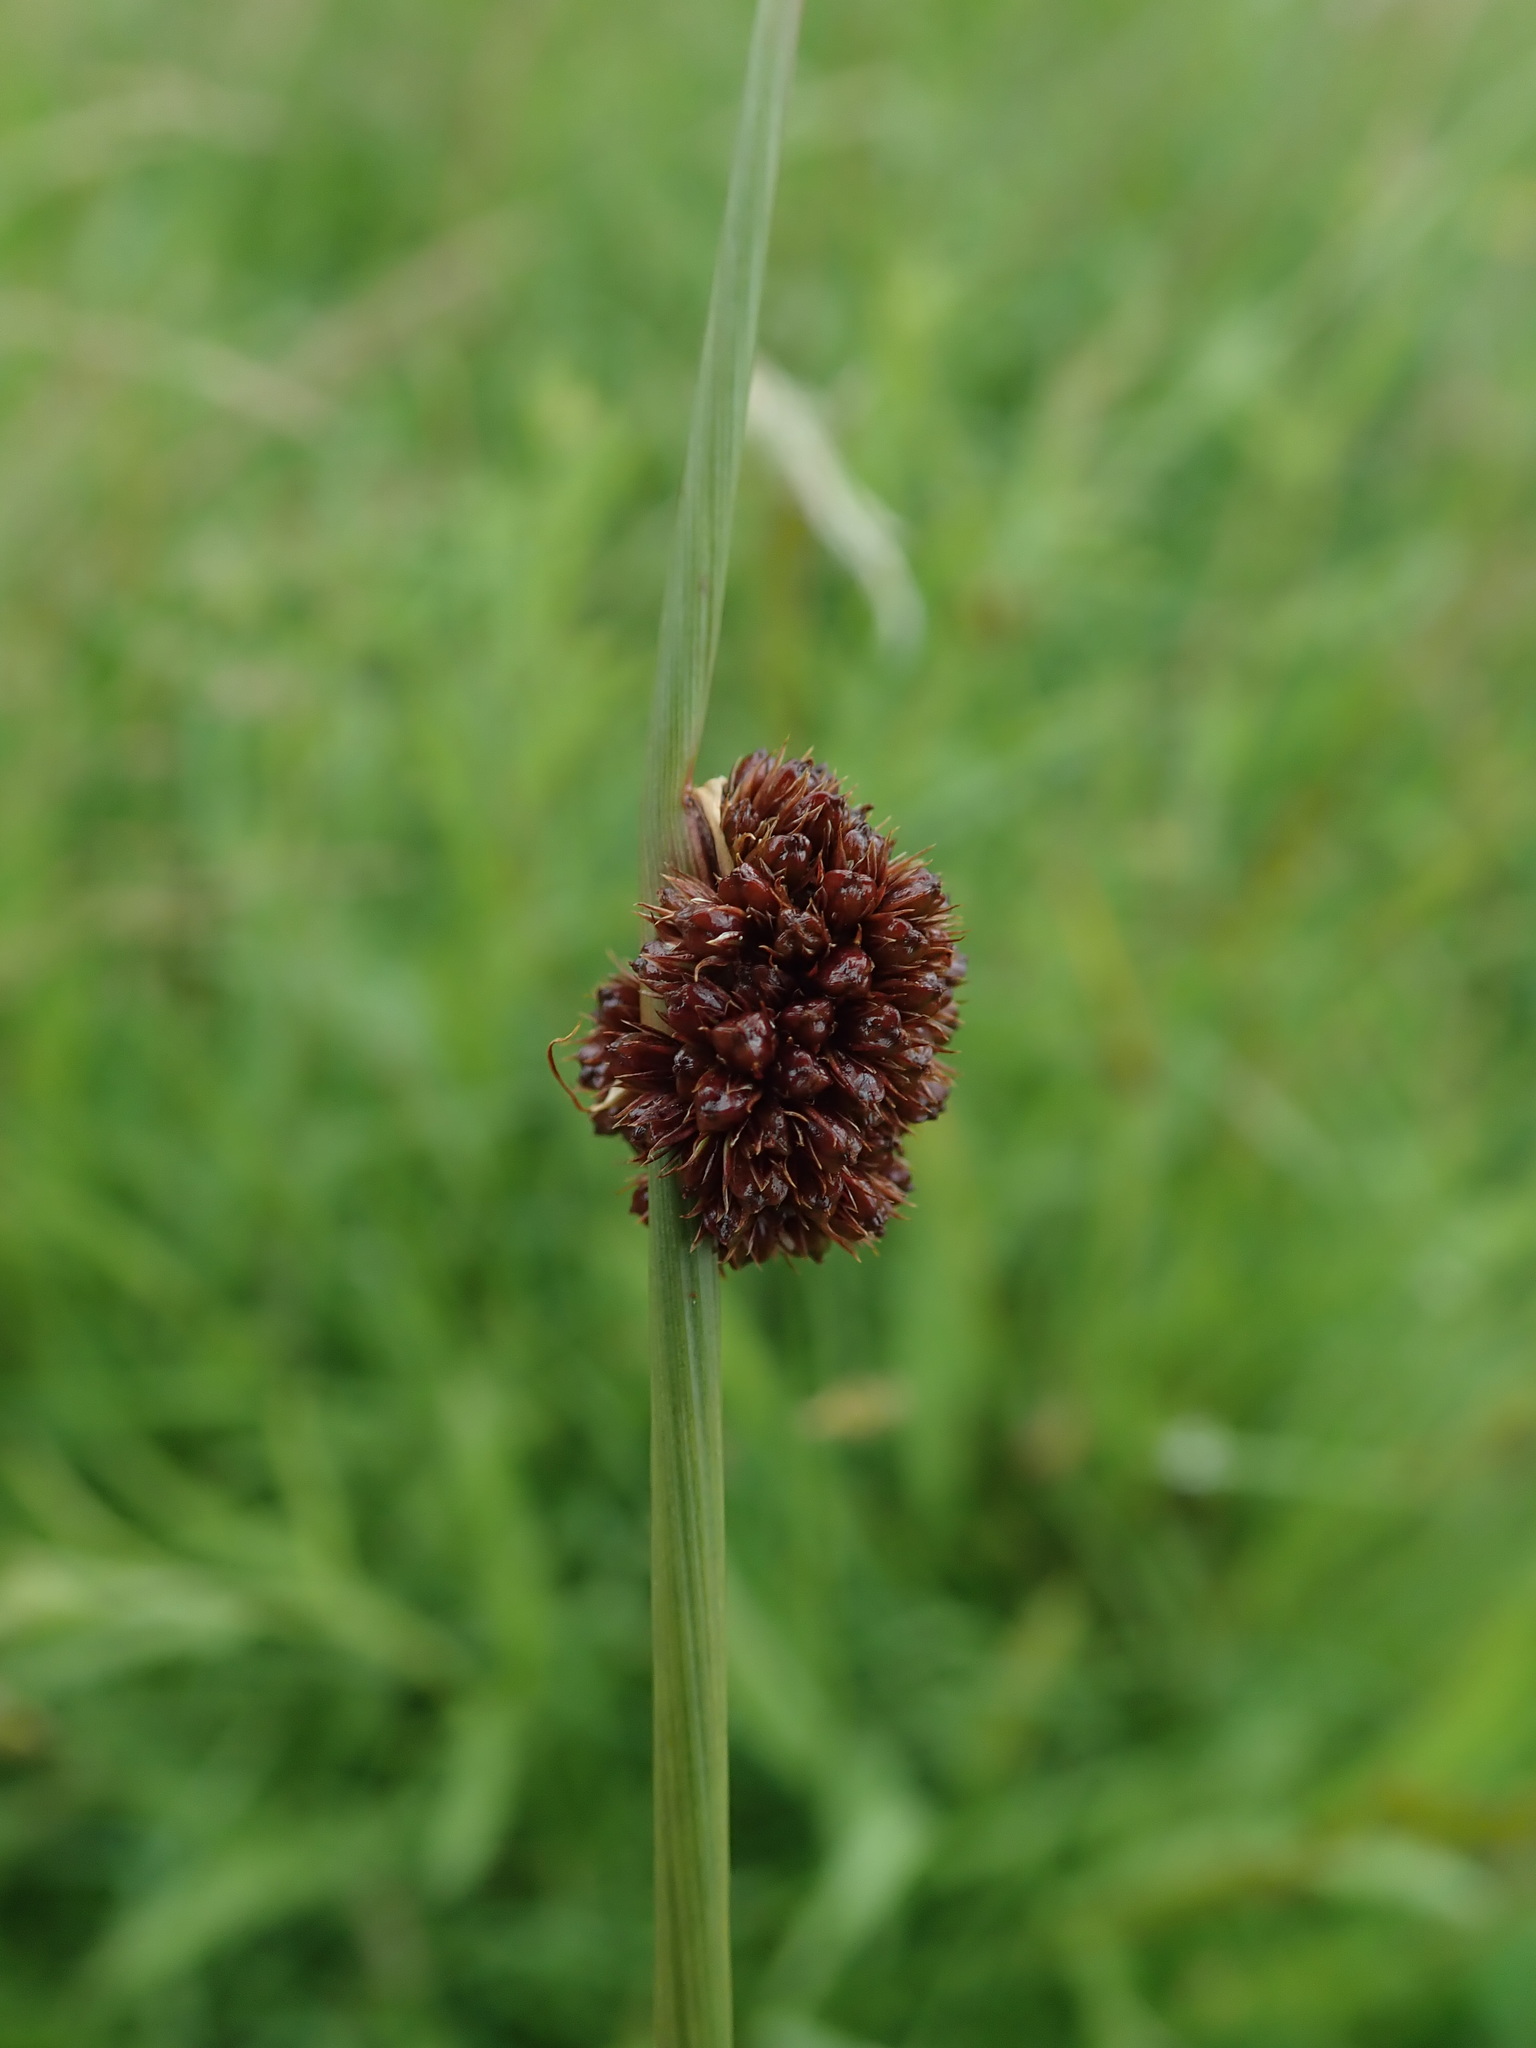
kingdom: Plantae
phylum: Tracheophyta
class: Liliopsida
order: Poales
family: Juncaceae
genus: Juncus
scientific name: Juncus conglomeratus
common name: Compact rush
